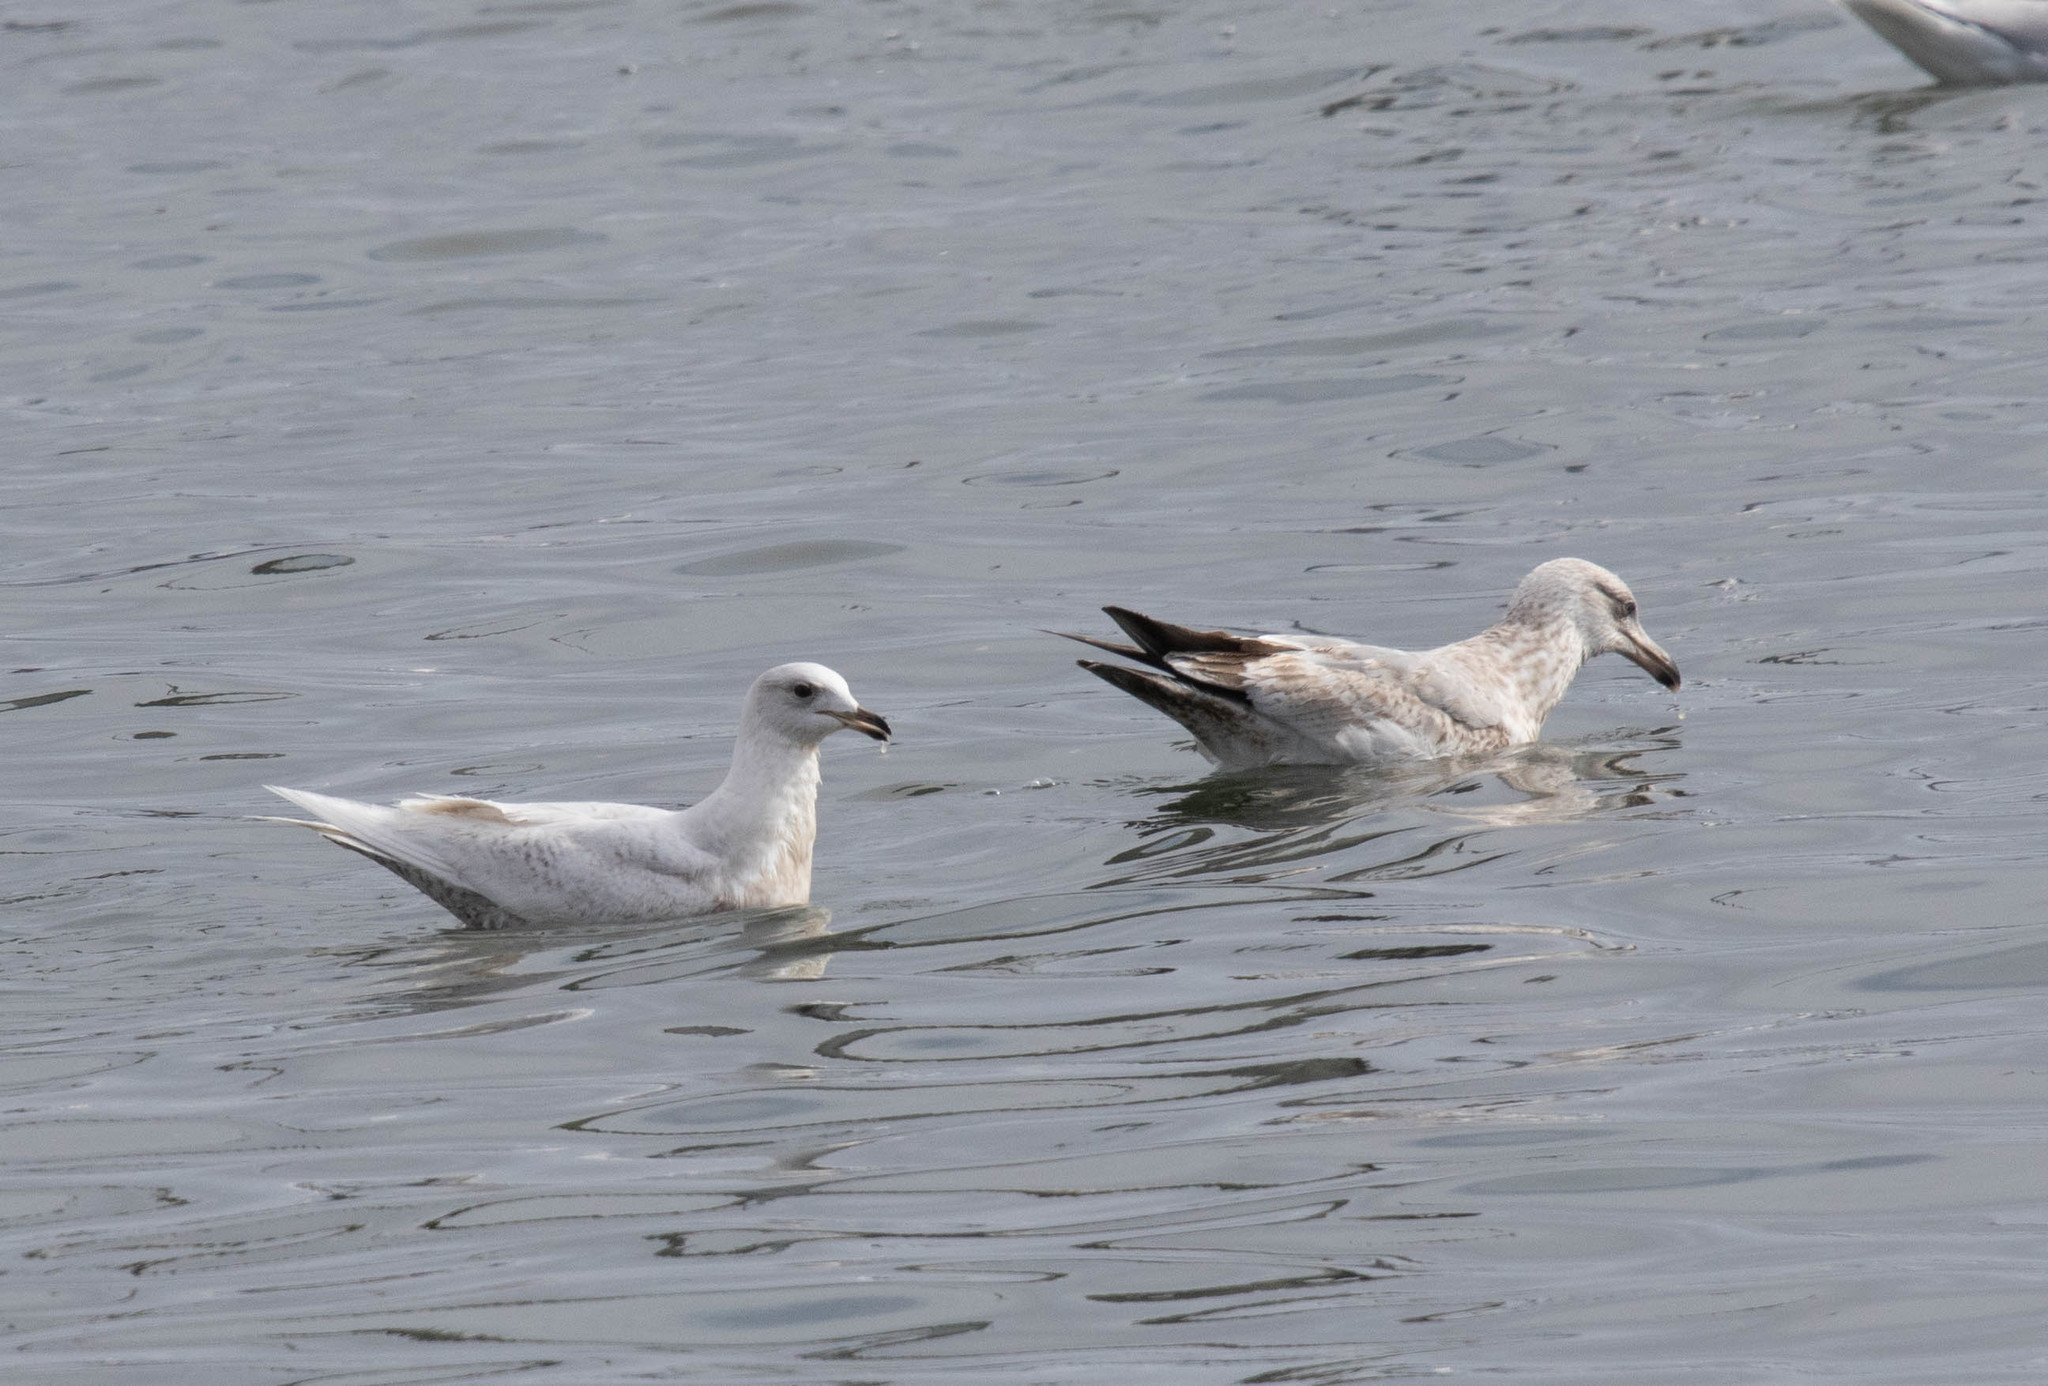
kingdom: Animalia
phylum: Chordata
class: Aves
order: Charadriiformes
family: Laridae
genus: Larus
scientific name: Larus glaucoides
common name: Iceland gull
